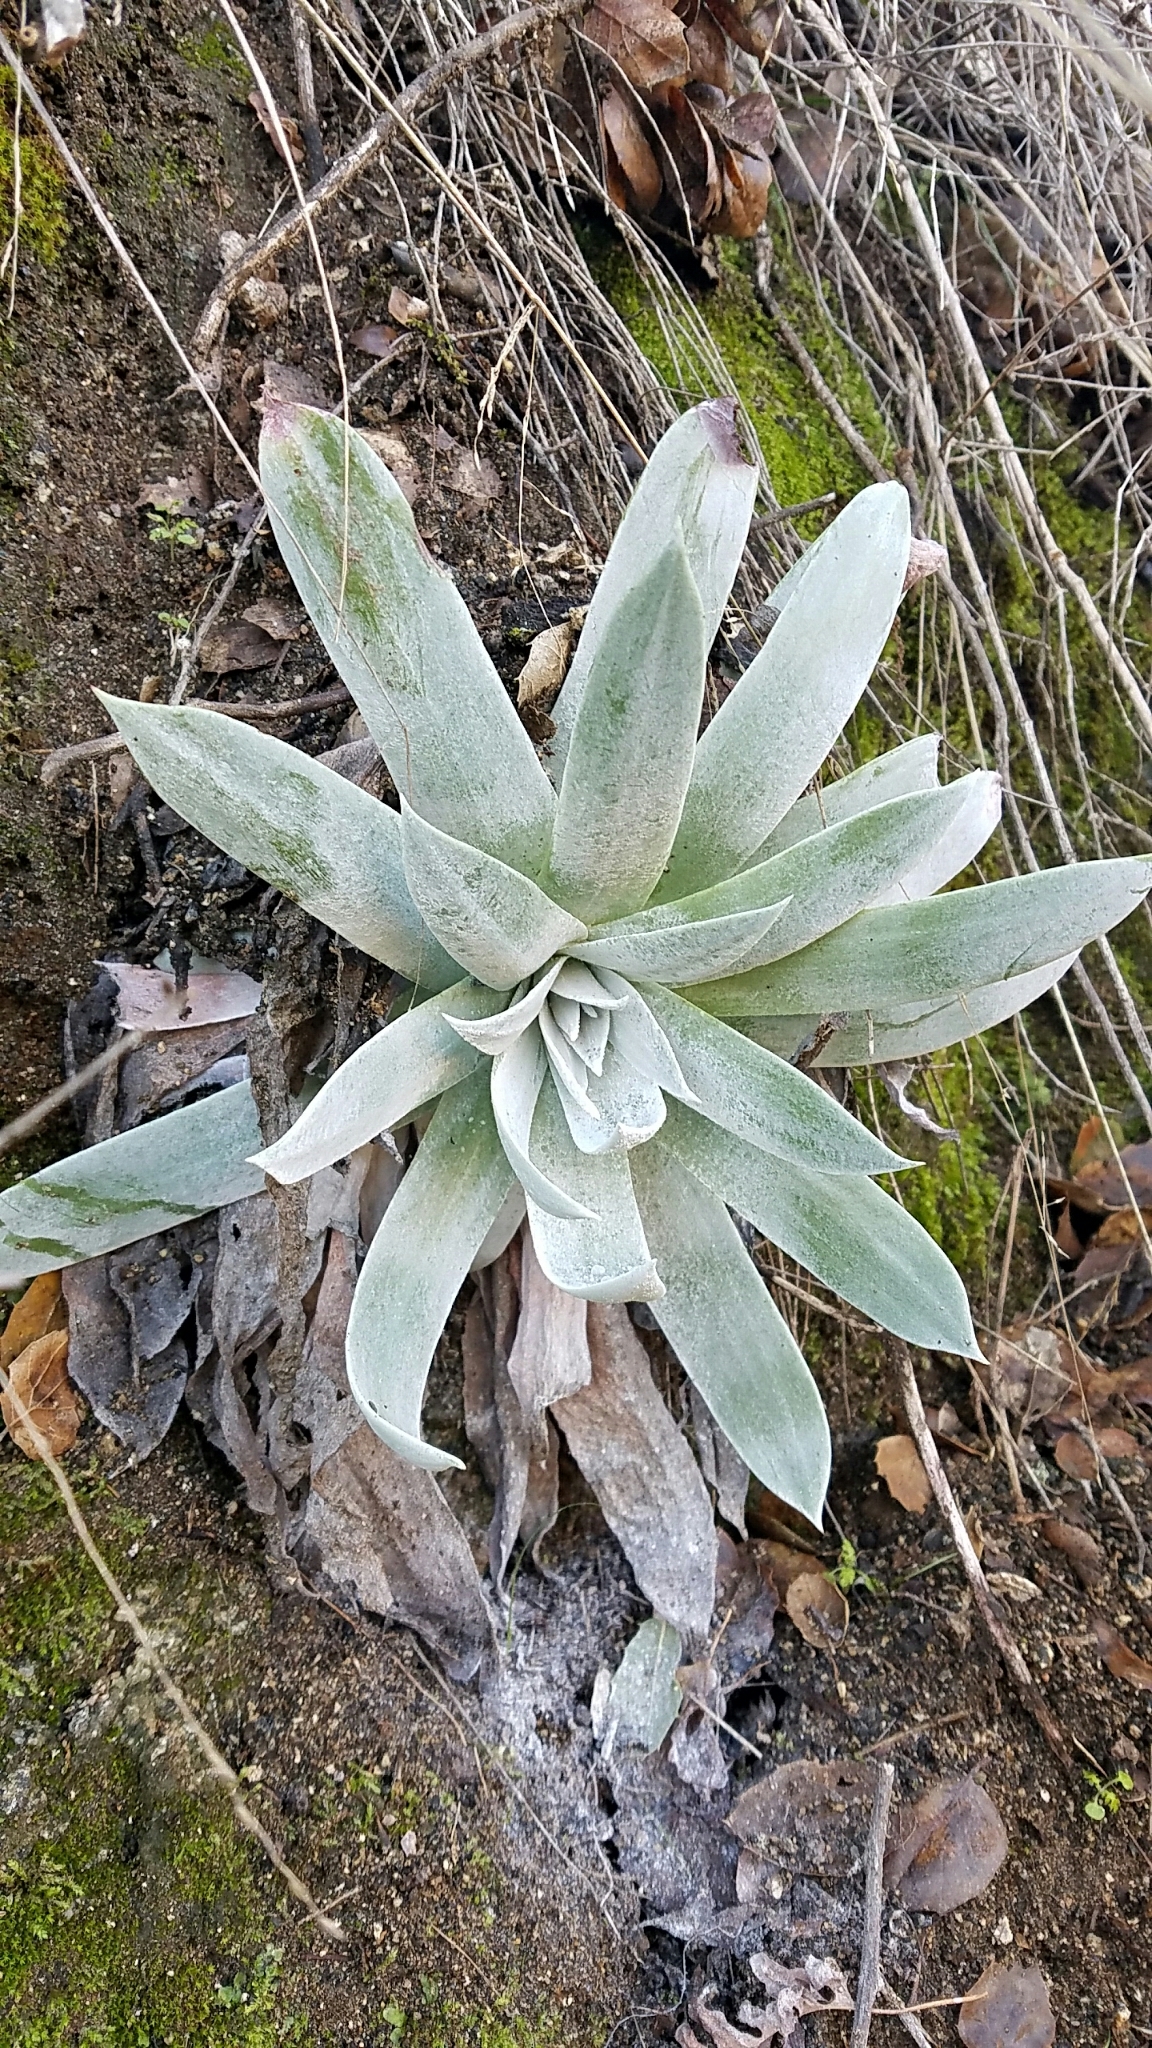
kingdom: Plantae
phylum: Tracheophyta
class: Magnoliopsida
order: Saxifragales
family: Crassulaceae
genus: Dudleya
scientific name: Dudleya pulverulenta
